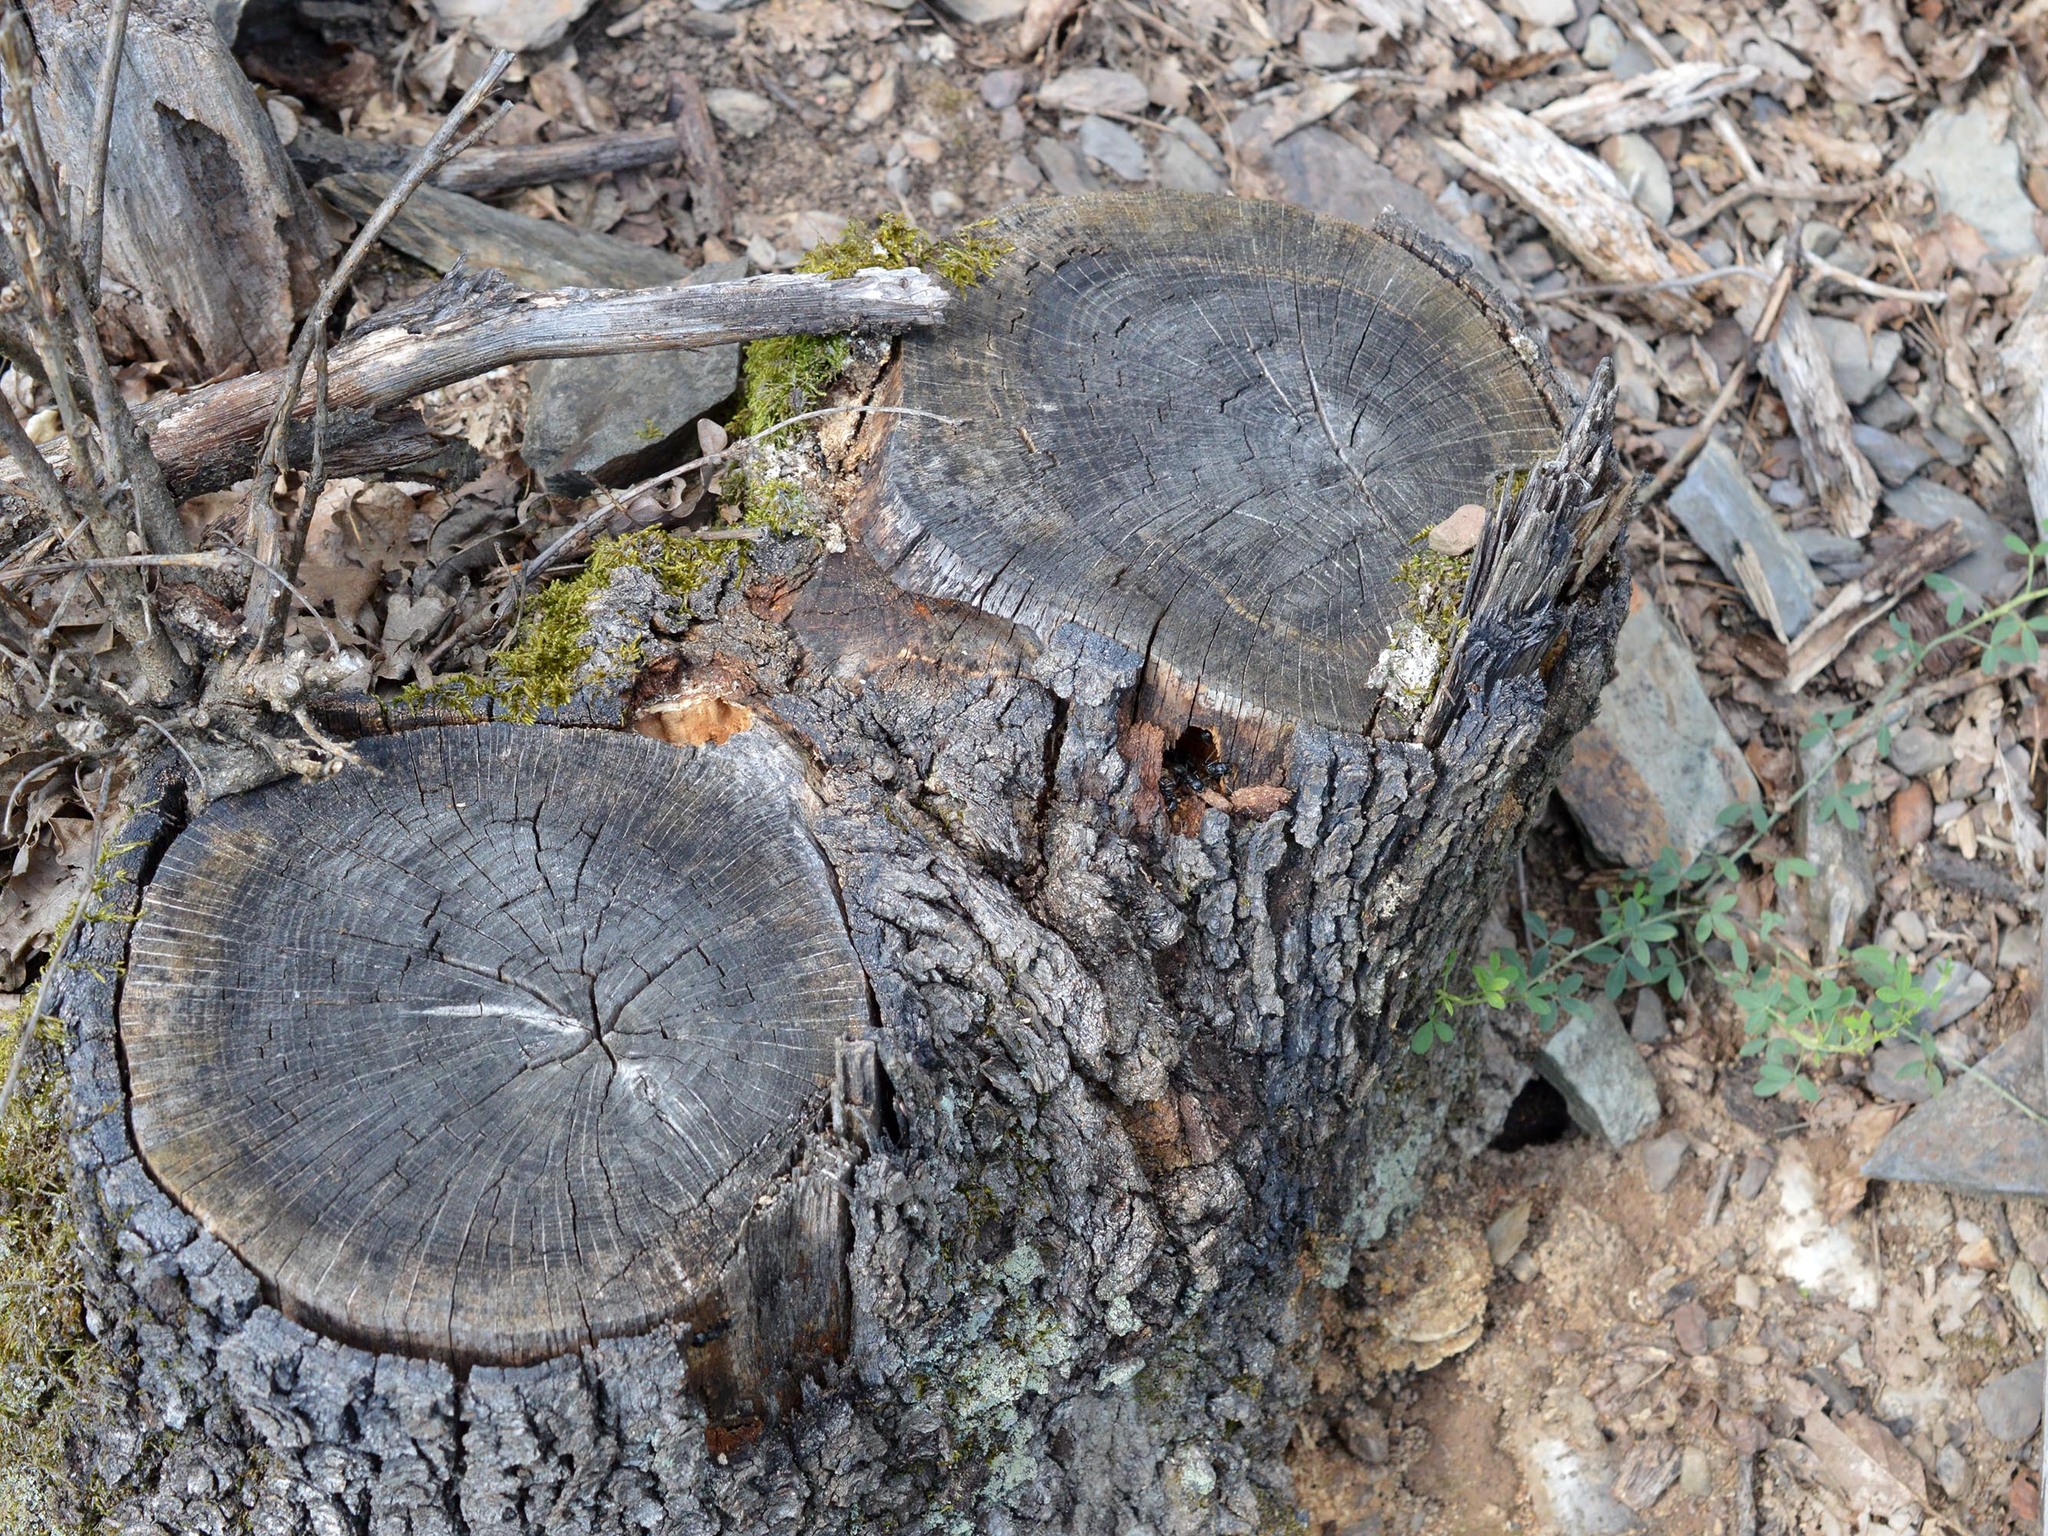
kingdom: Animalia
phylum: Arthropoda
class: Insecta
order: Hymenoptera
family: Formicidae
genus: Camponotus
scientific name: Camponotus vagus
